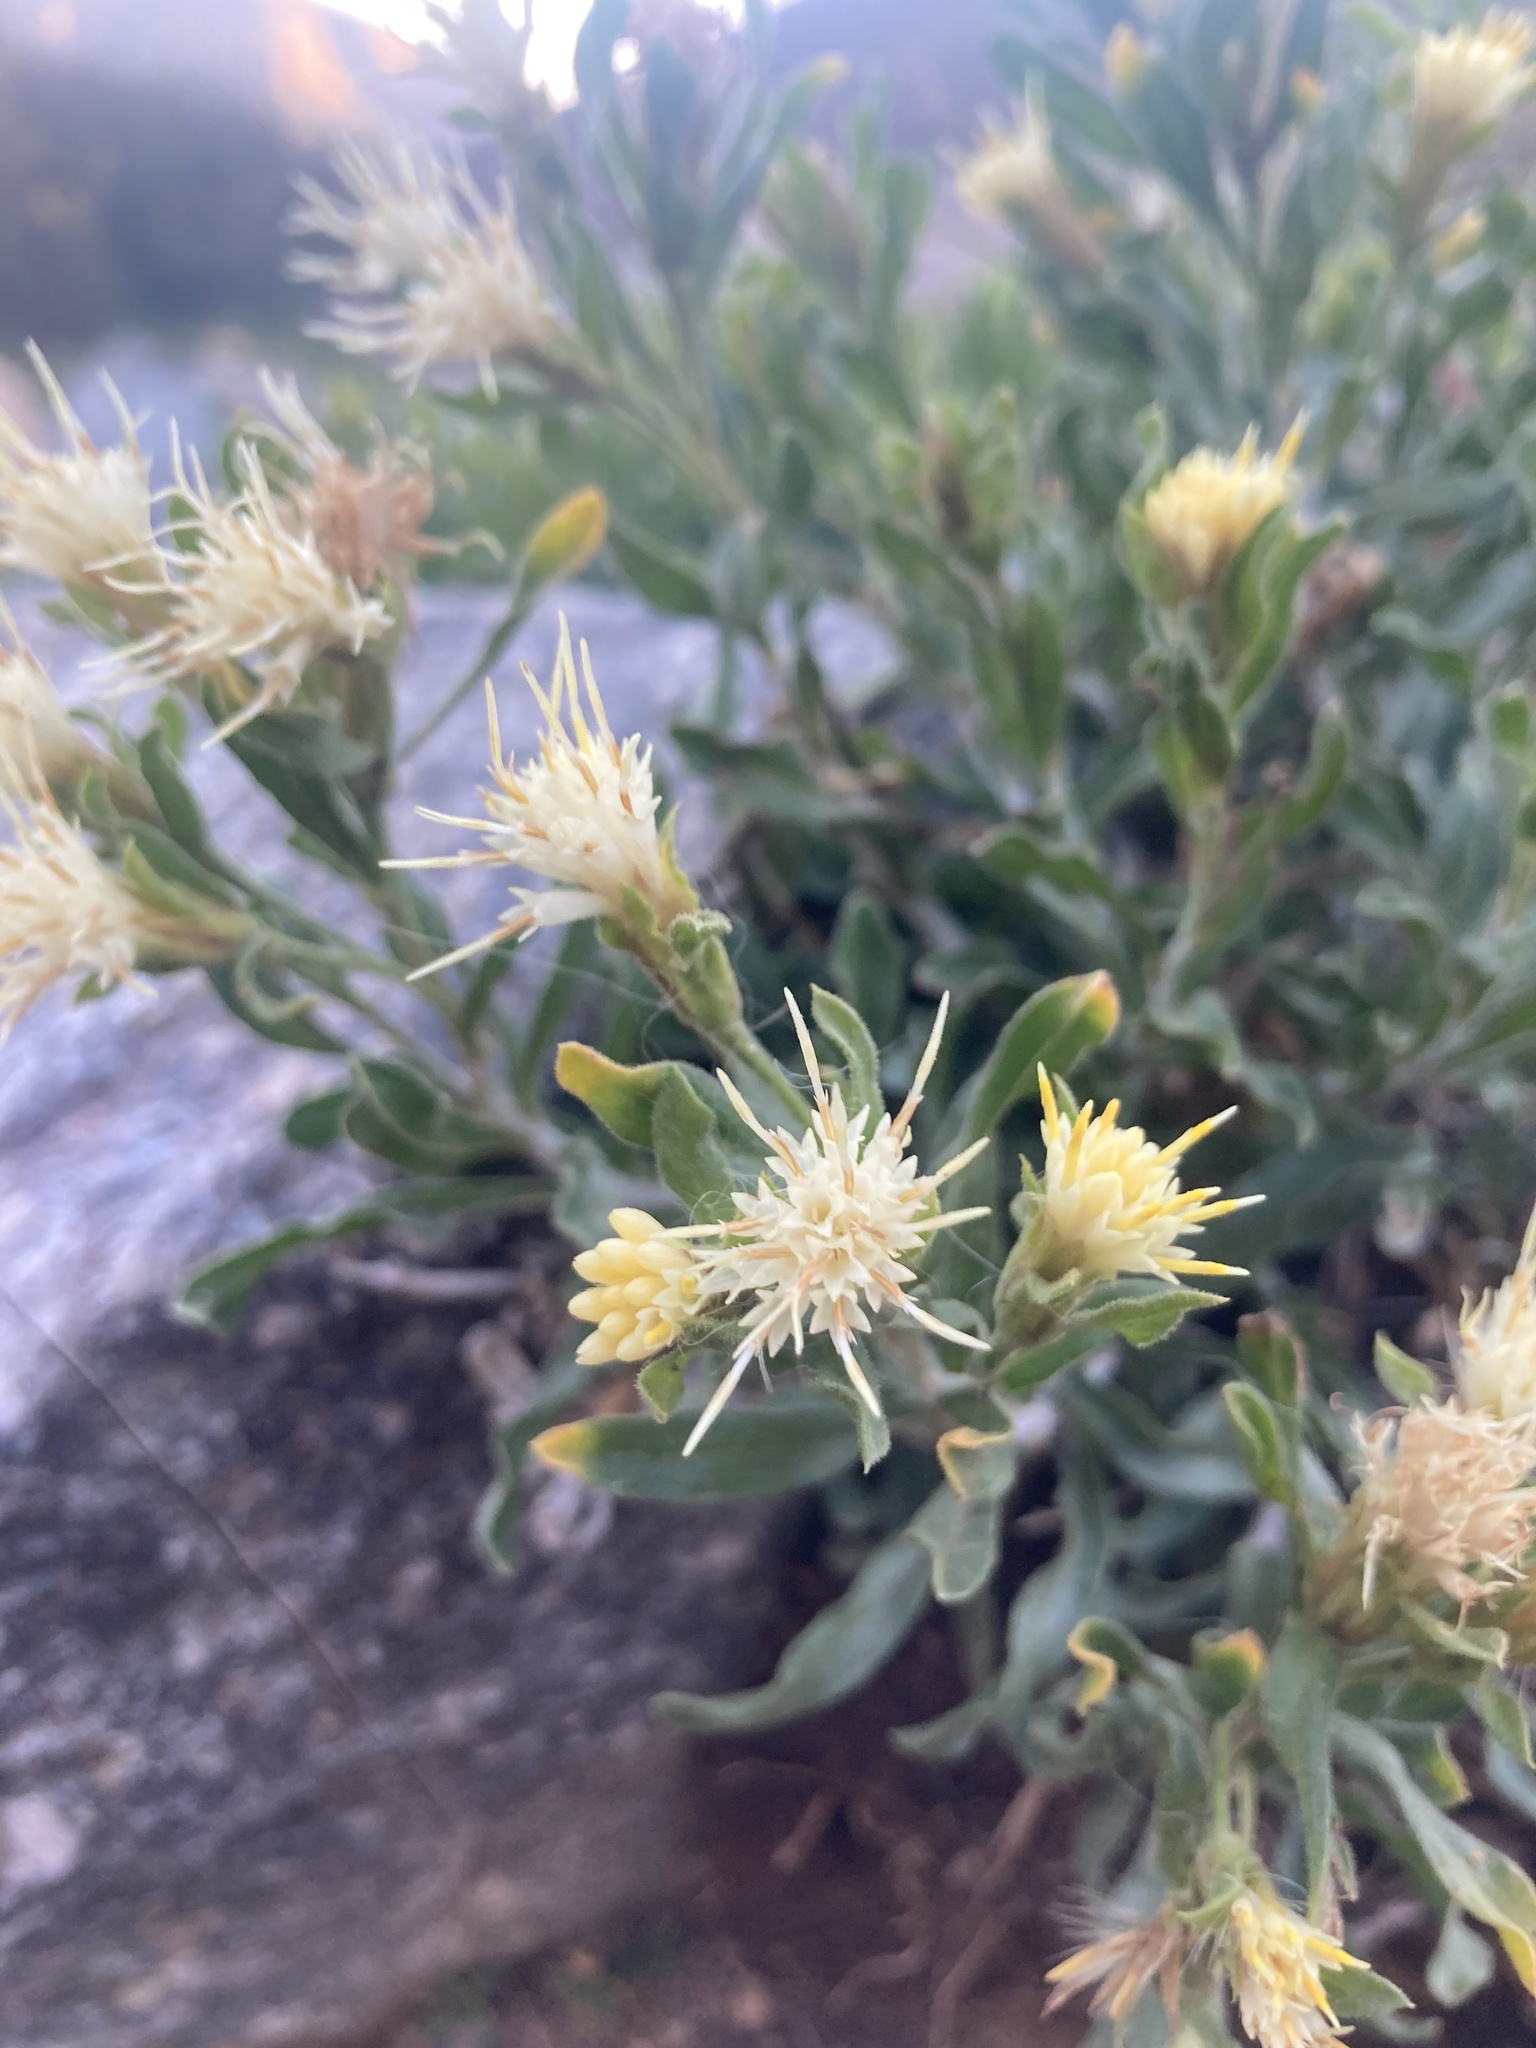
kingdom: Plantae
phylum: Tracheophyta
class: Magnoliopsida
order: Asterales
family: Asteraceae
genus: Ericameria
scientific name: Ericameria discoidea
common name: Sharp-scale goldenweed
